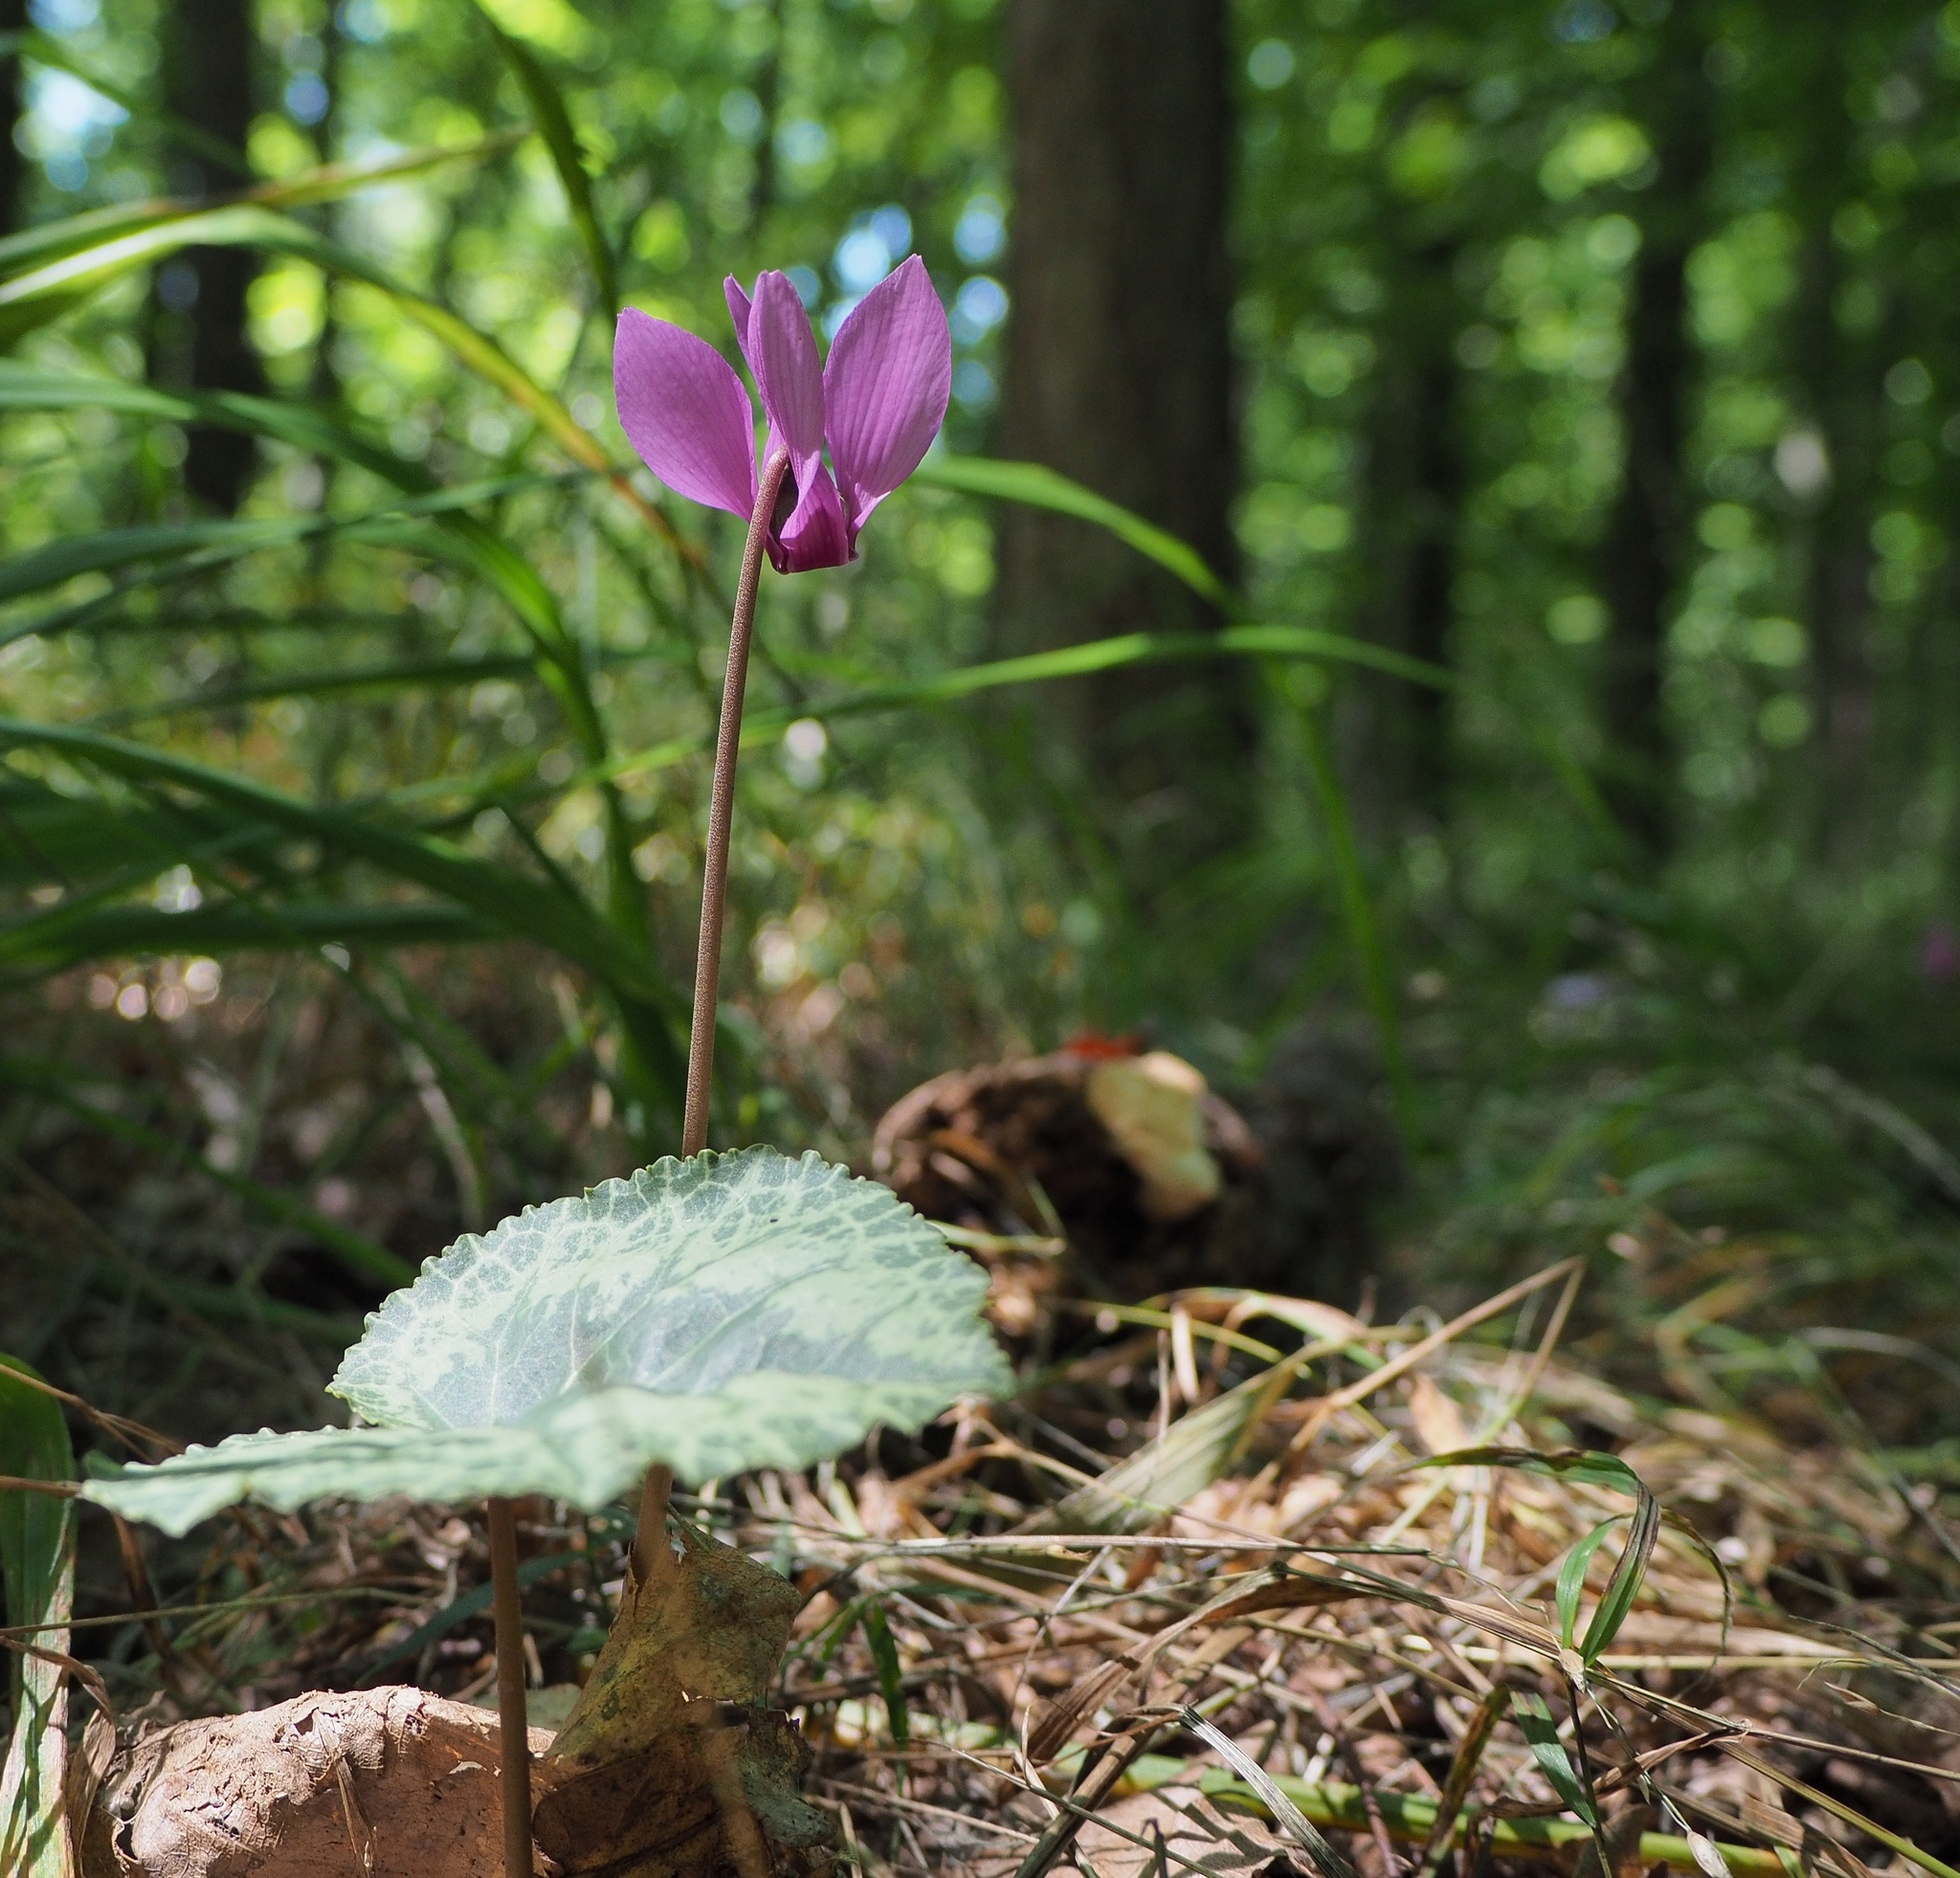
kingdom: Plantae
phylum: Tracheophyta
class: Magnoliopsida
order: Ericales
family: Primulaceae
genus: Cyclamen
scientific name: Cyclamen purpurascens
